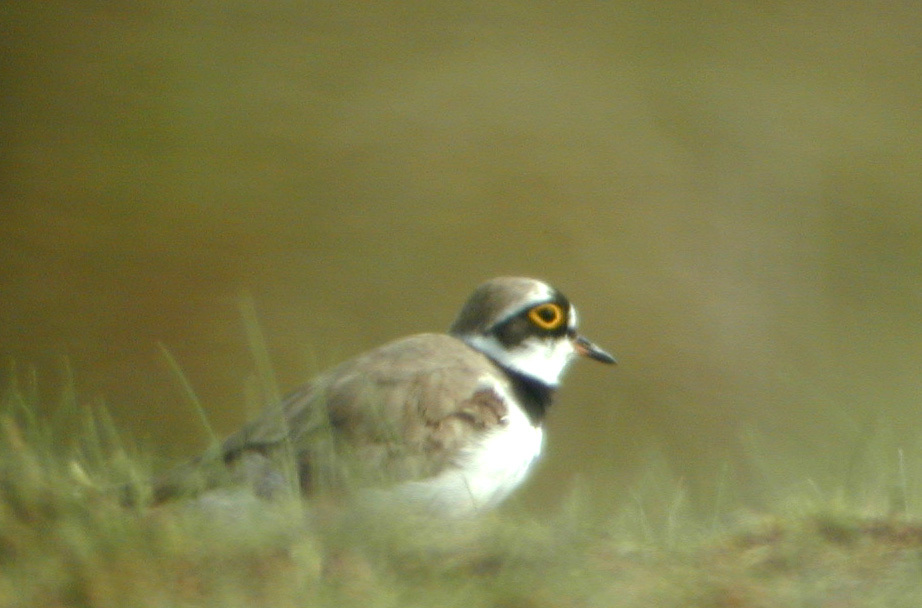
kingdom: Animalia
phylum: Chordata
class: Aves
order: Charadriiformes
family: Charadriidae
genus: Charadrius
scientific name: Charadrius dubius
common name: Little ringed plover
